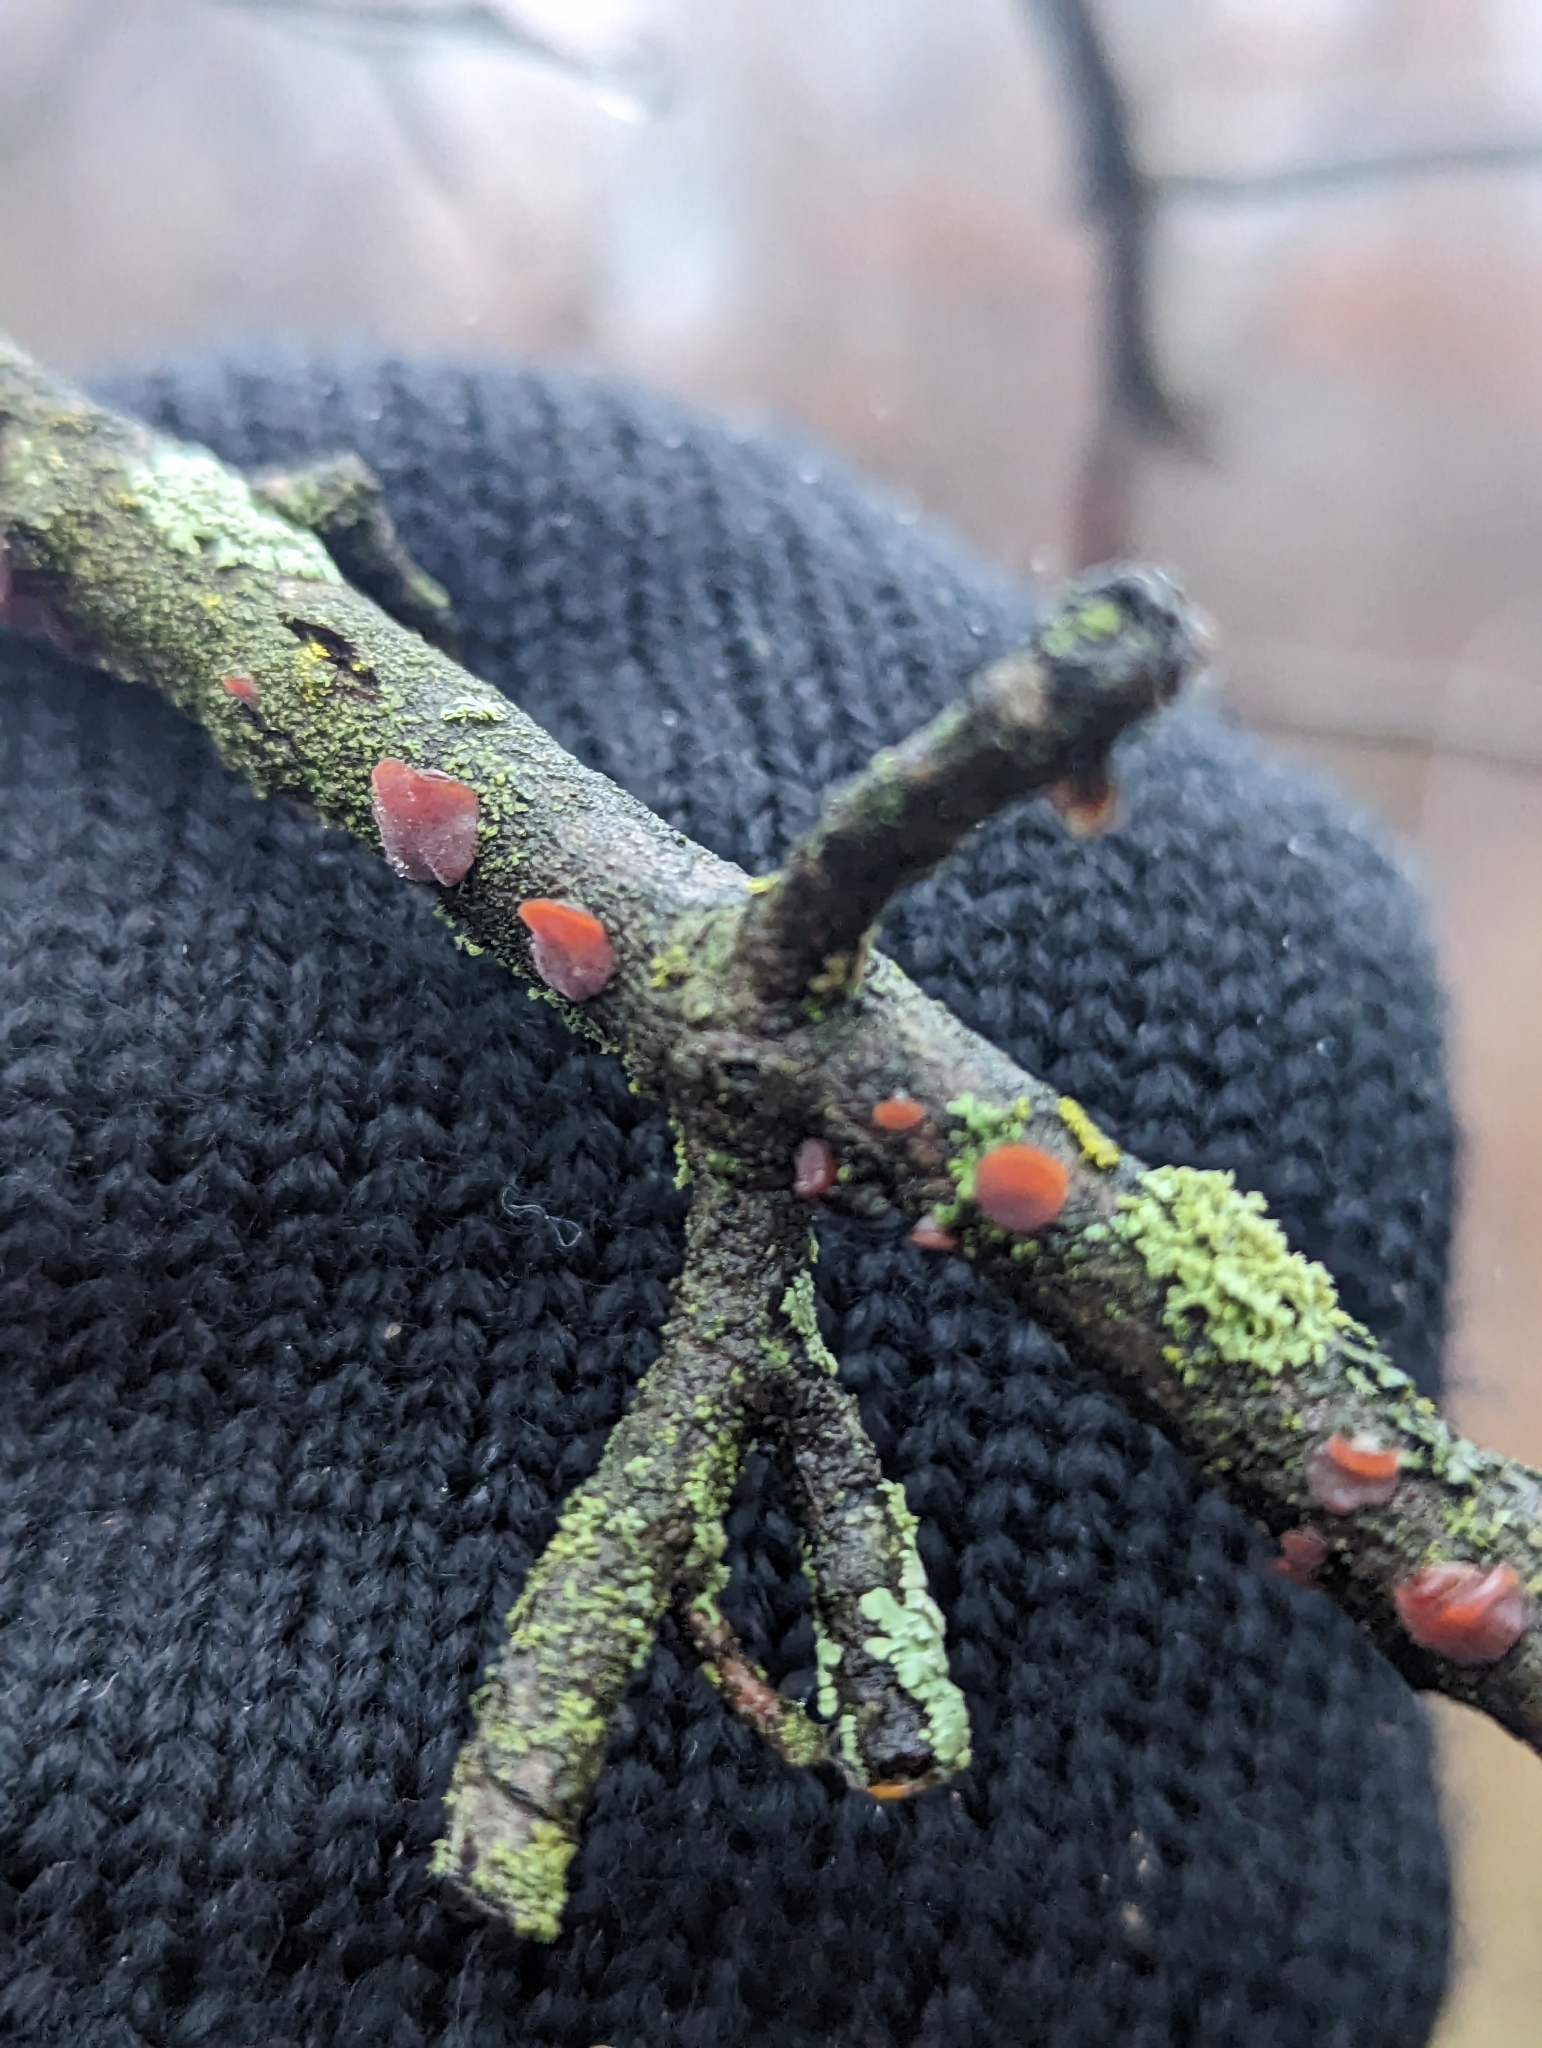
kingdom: Fungi
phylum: Basidiomycota
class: Agaricomycetes
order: Auriculariales
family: Auriculariaceae
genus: Exidia
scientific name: Exidia recisa
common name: Amber jelly
